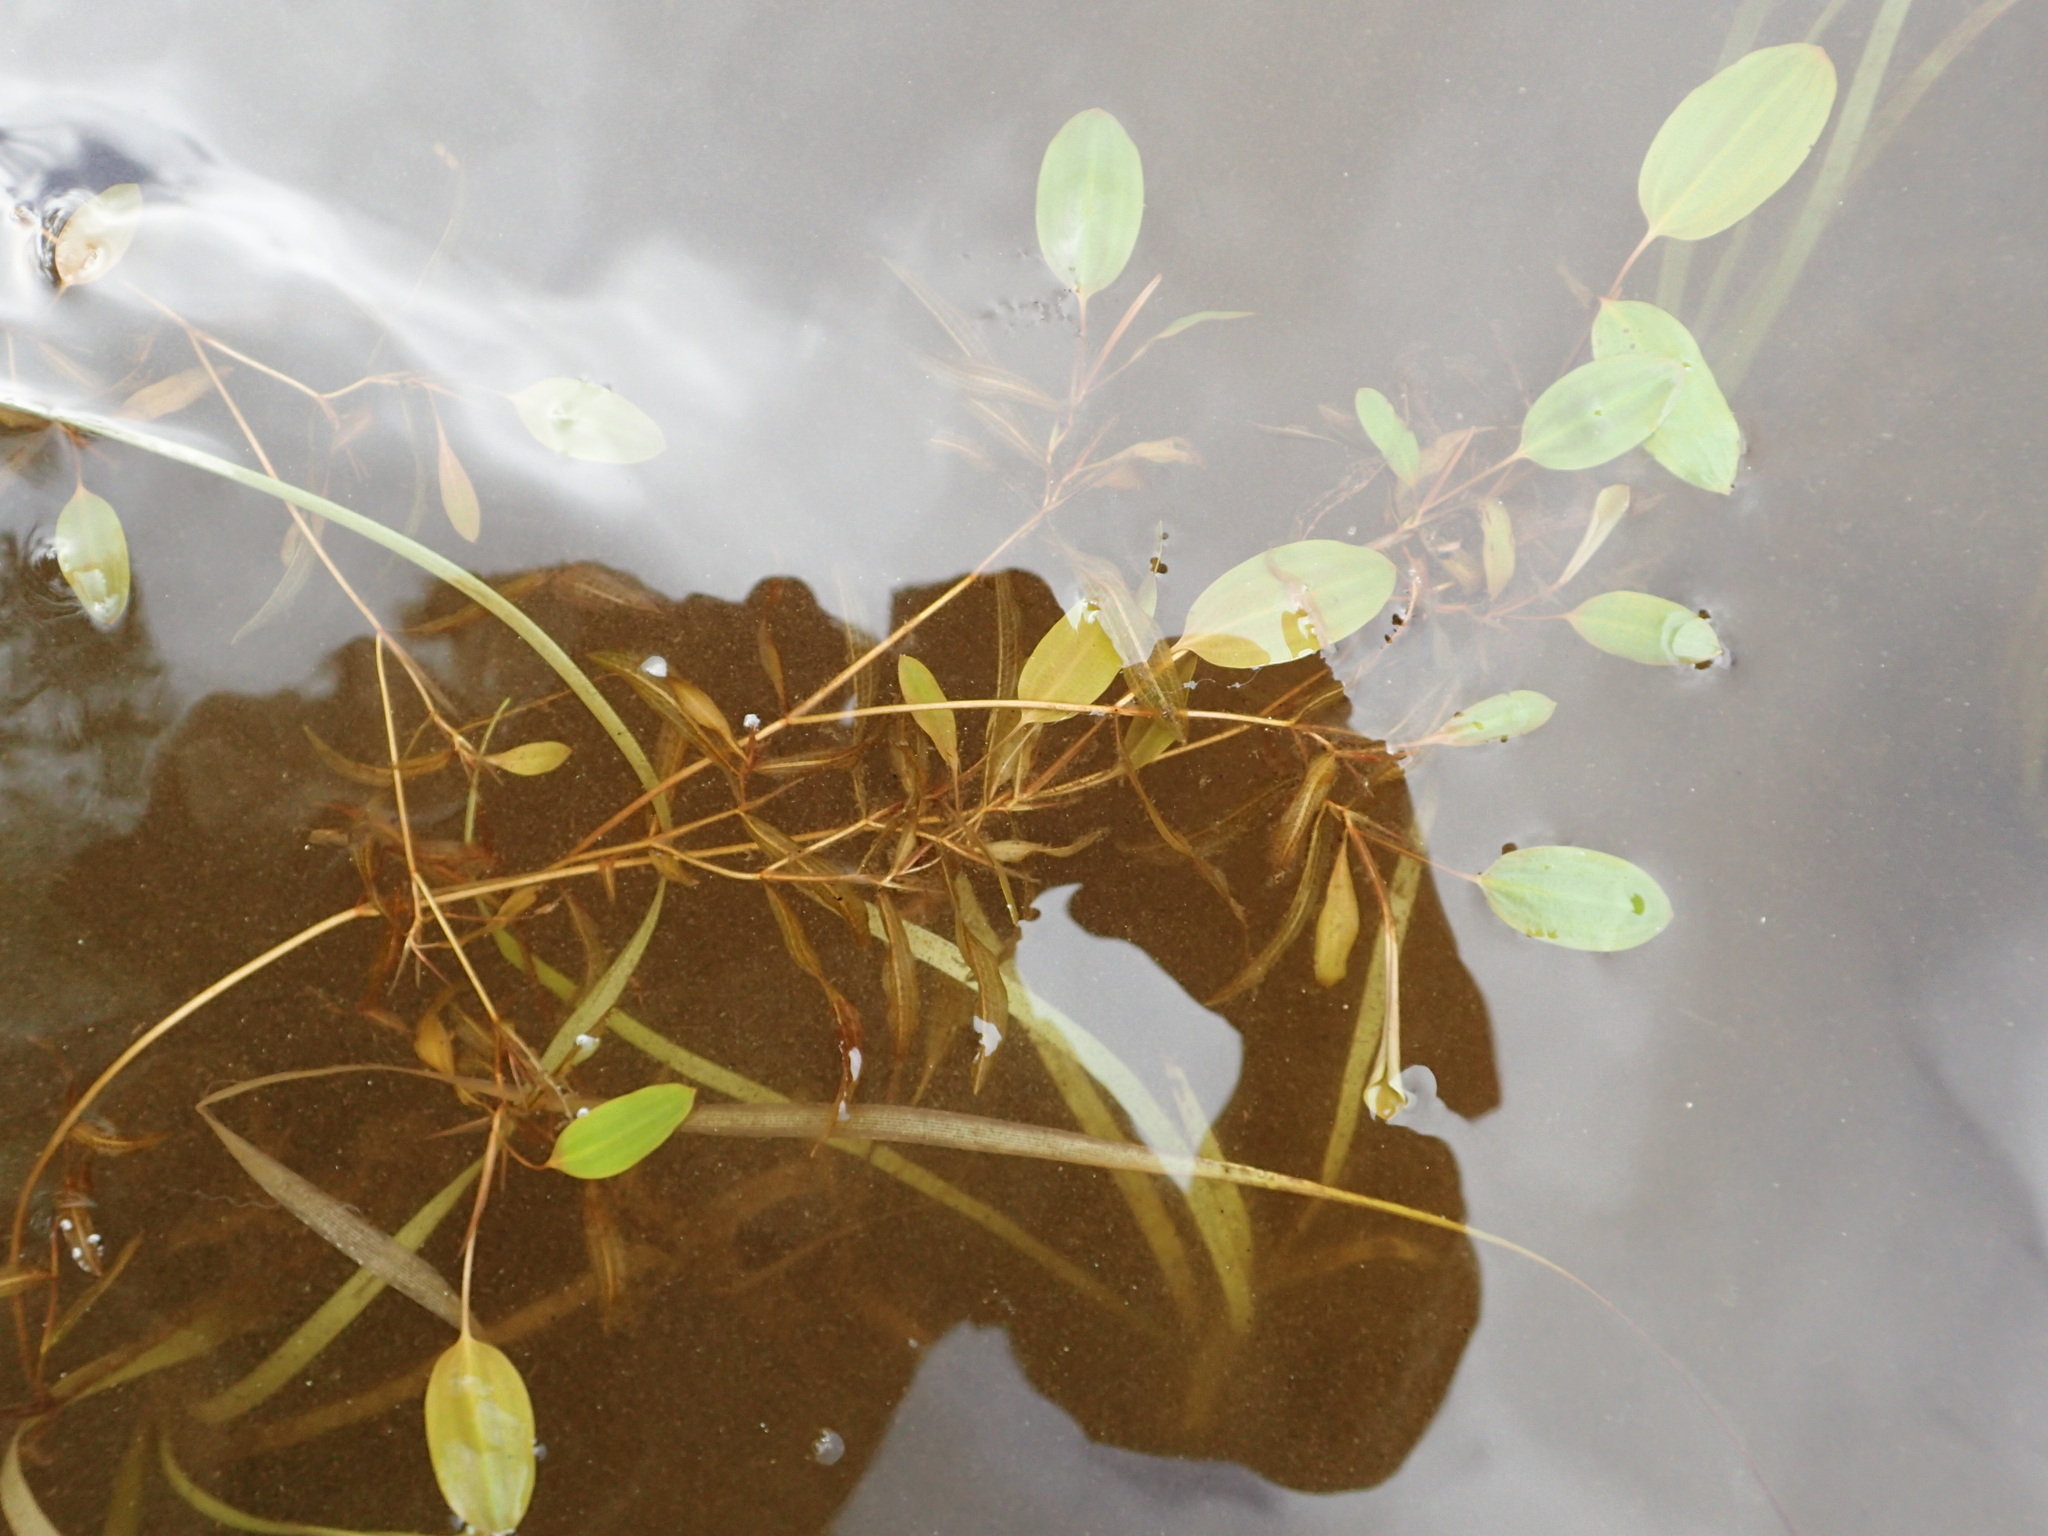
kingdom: Plantae
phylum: Tracheophyta
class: Liliopsida
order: Alismatales
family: Potamogetonaceae
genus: Potamogeton
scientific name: Potamogeton gramineus
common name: Various-leaved pondweed
